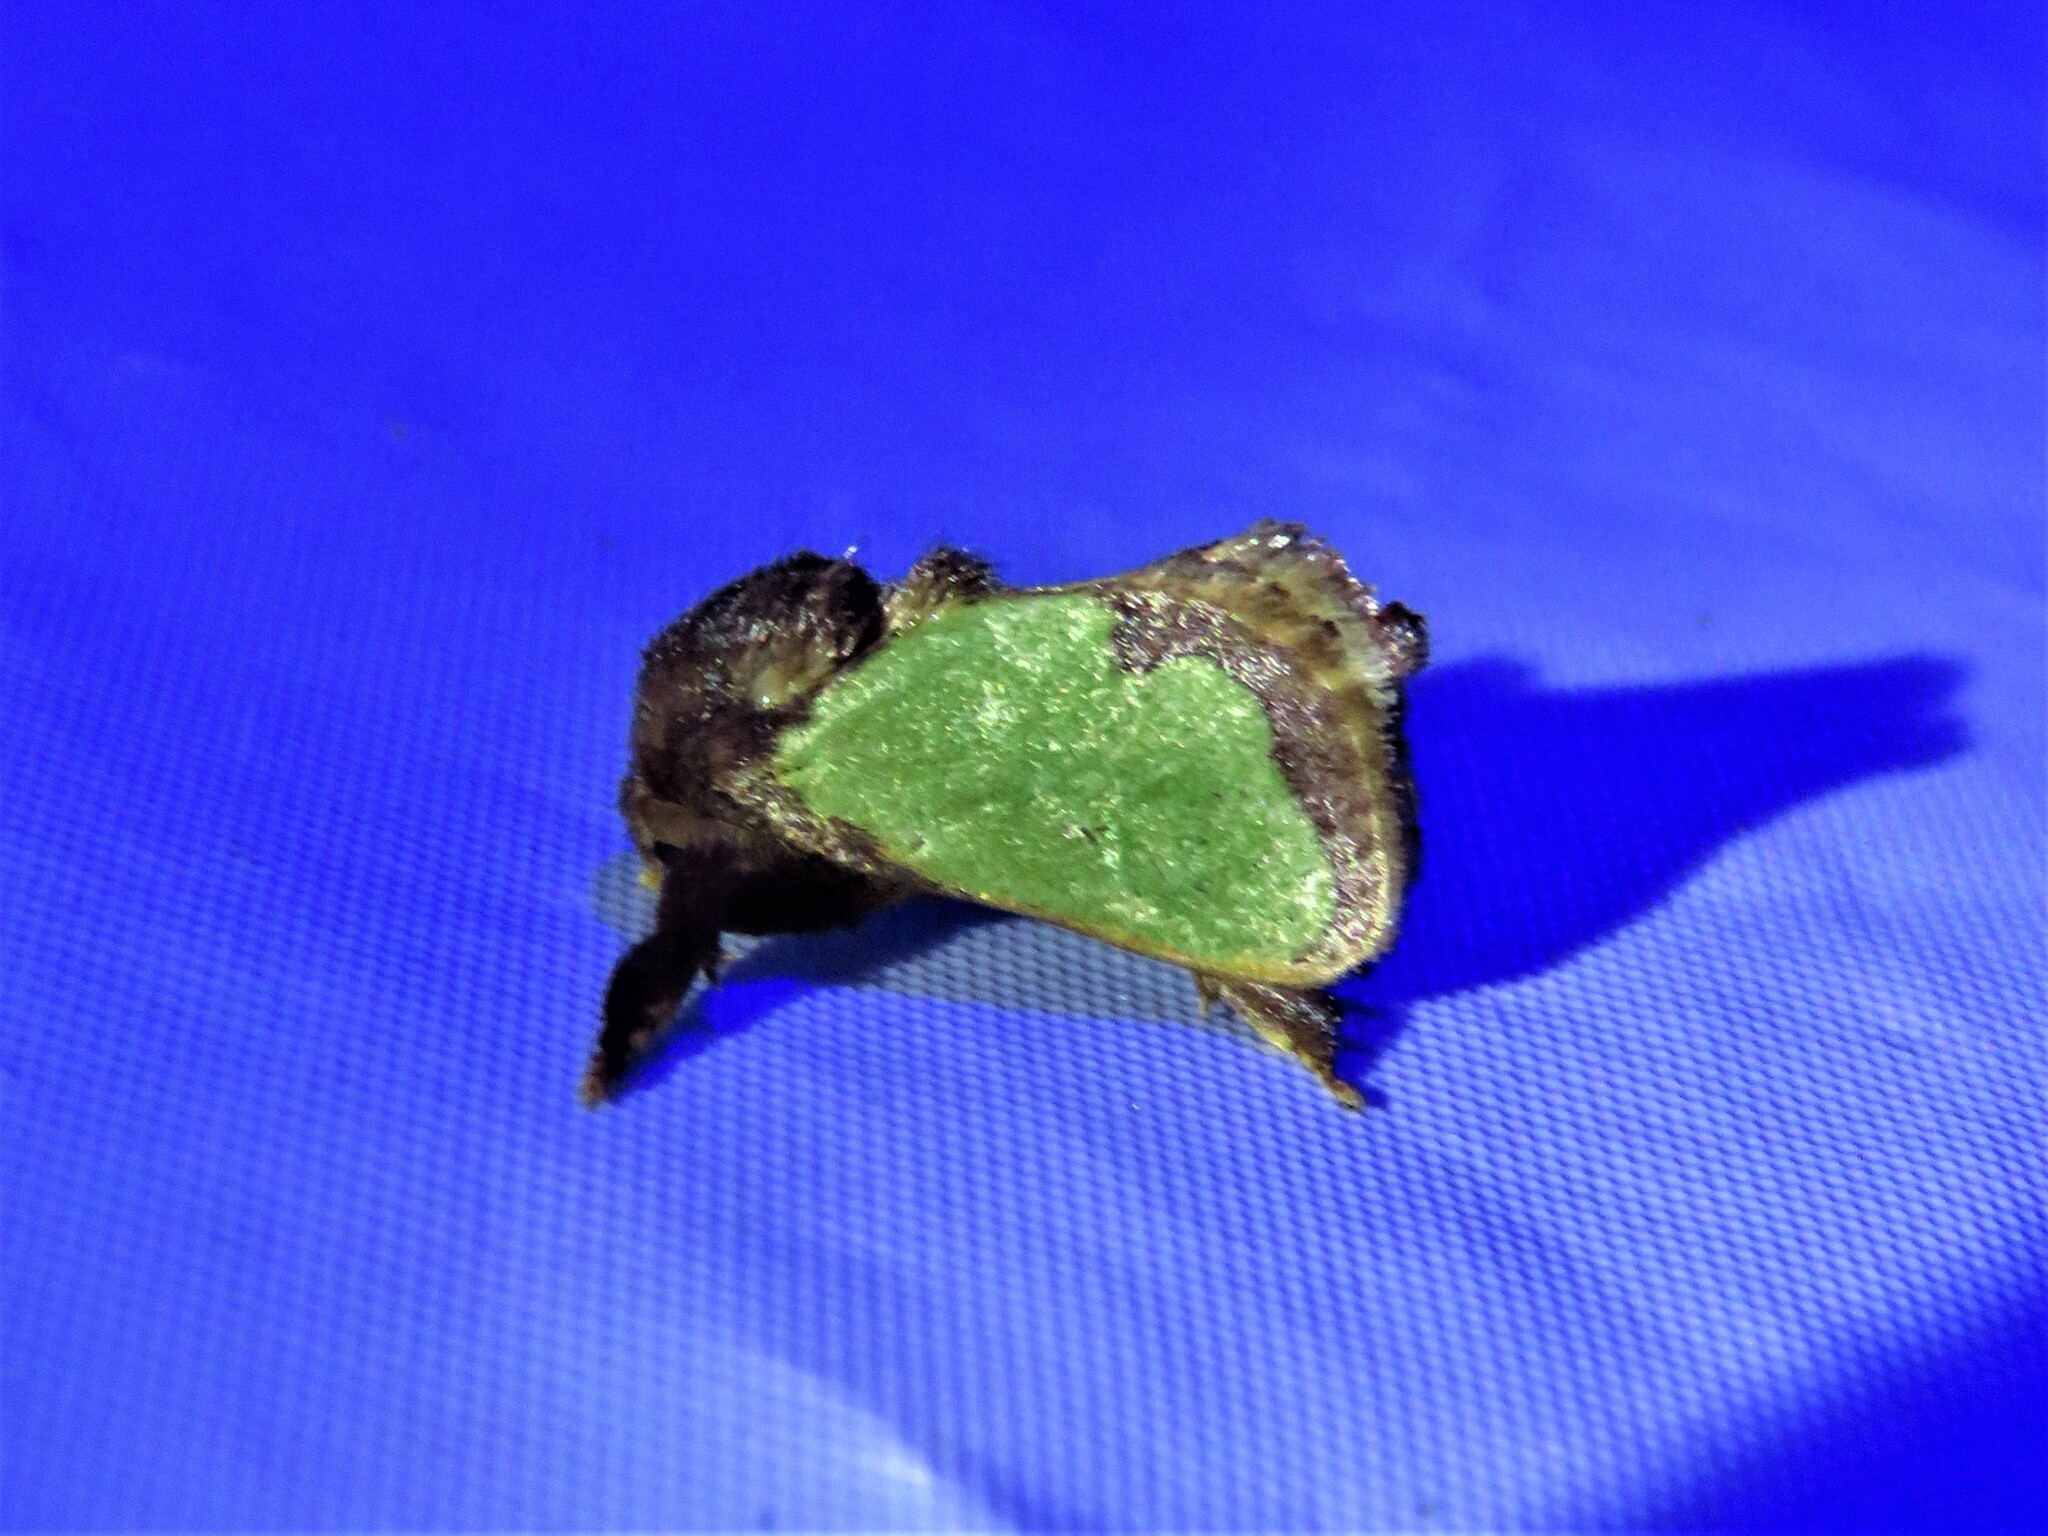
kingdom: Animalia
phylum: Arthropoda
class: Insecta
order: Lepidoptera
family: Limacodidae
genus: Euclea
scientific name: Euclea incisa
